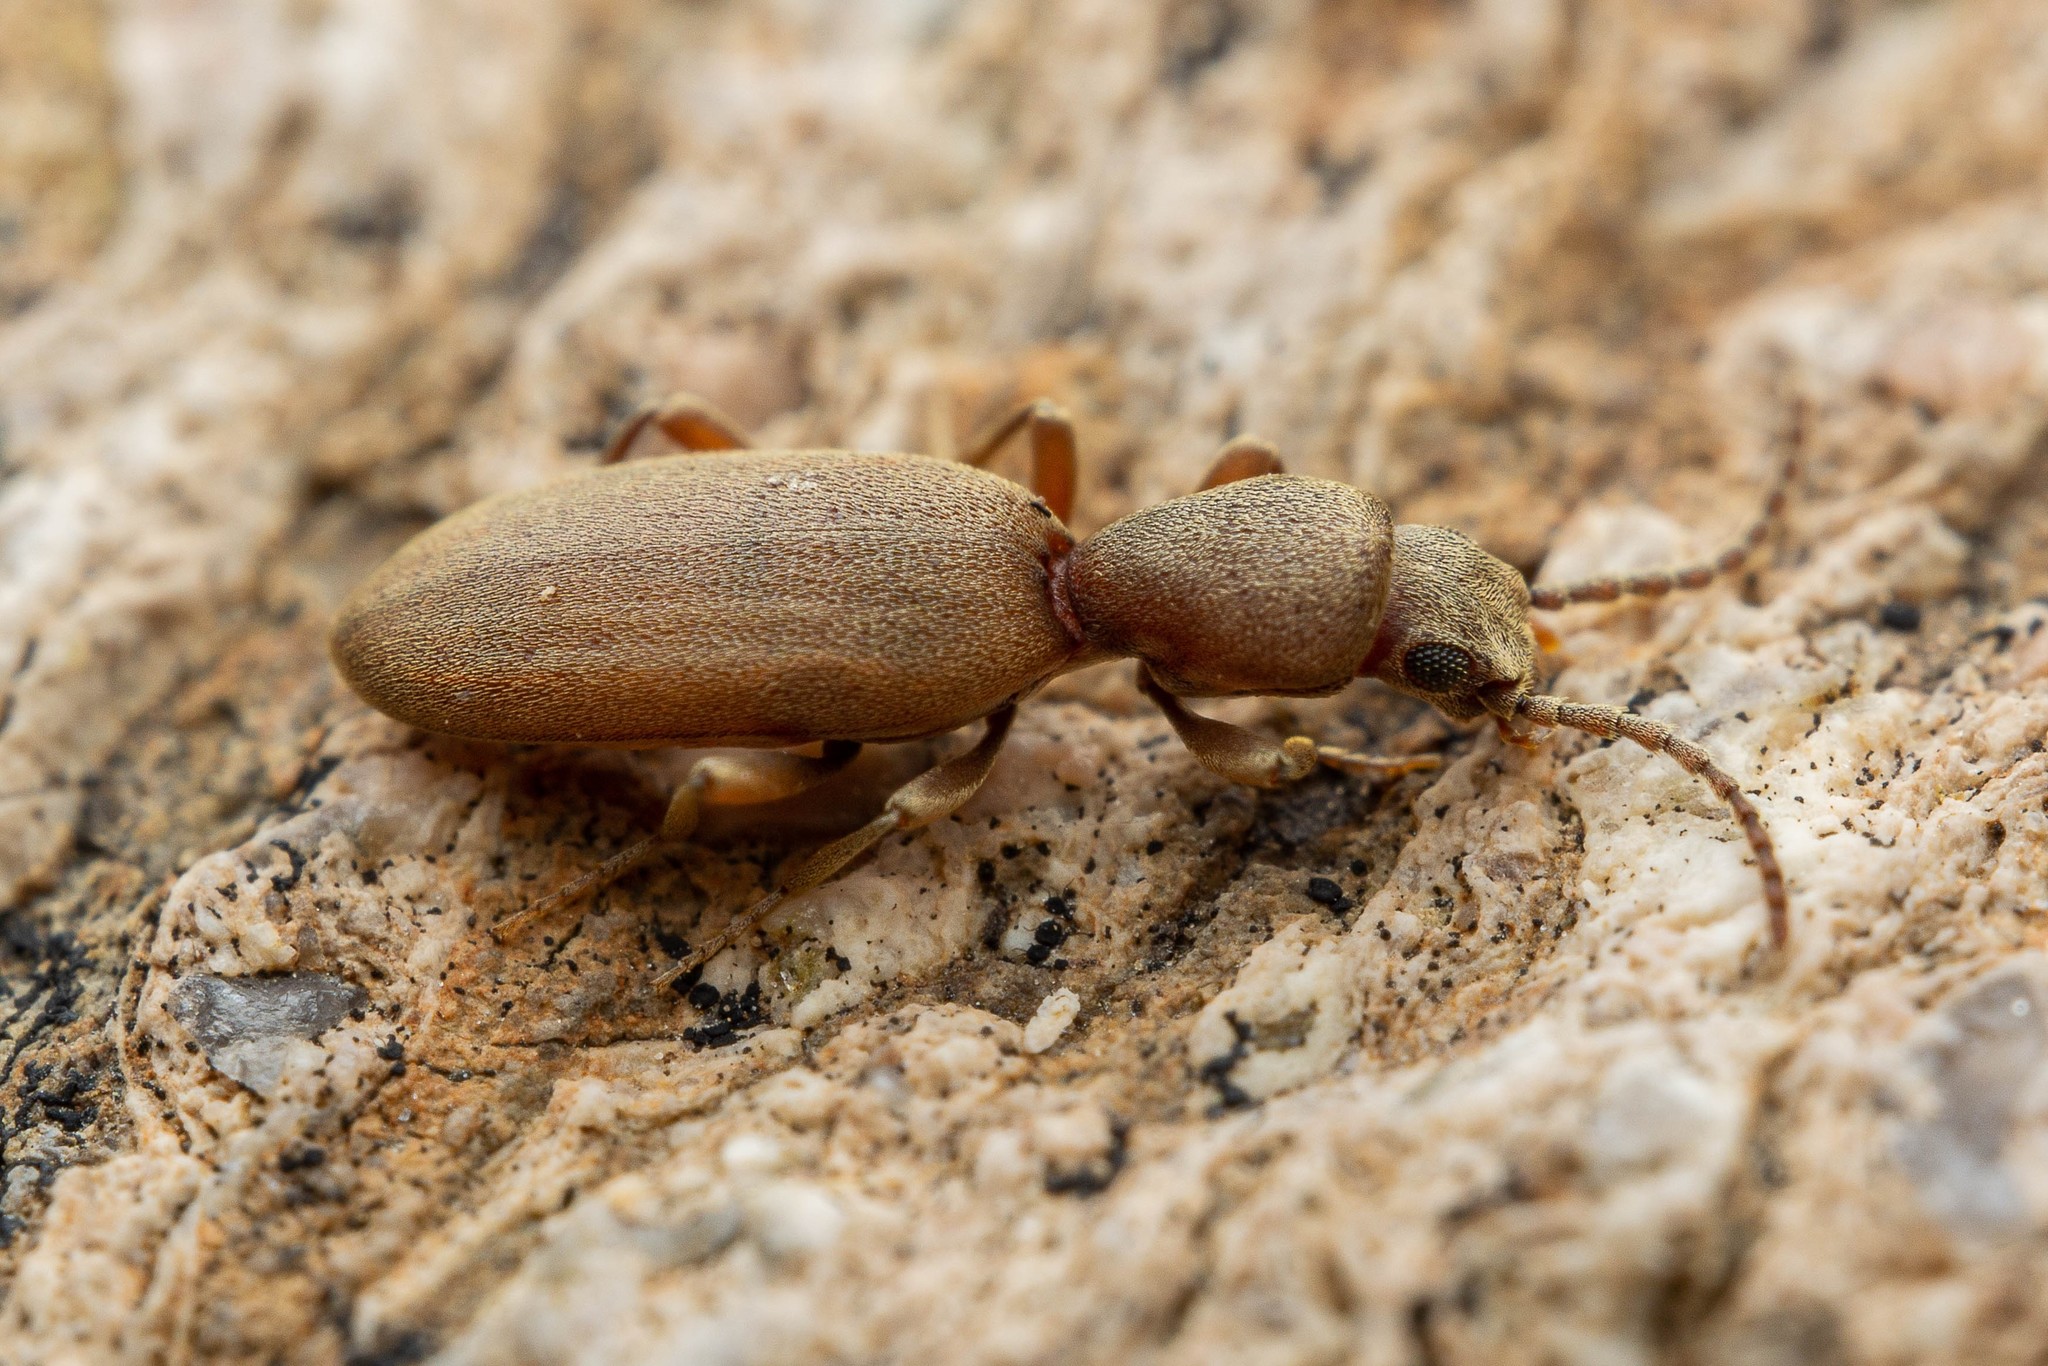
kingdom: Animalia
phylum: Arthropoda
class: Insecta
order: Coleoptera
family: Pyrochroidae
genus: Cononotus
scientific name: Cononotus
